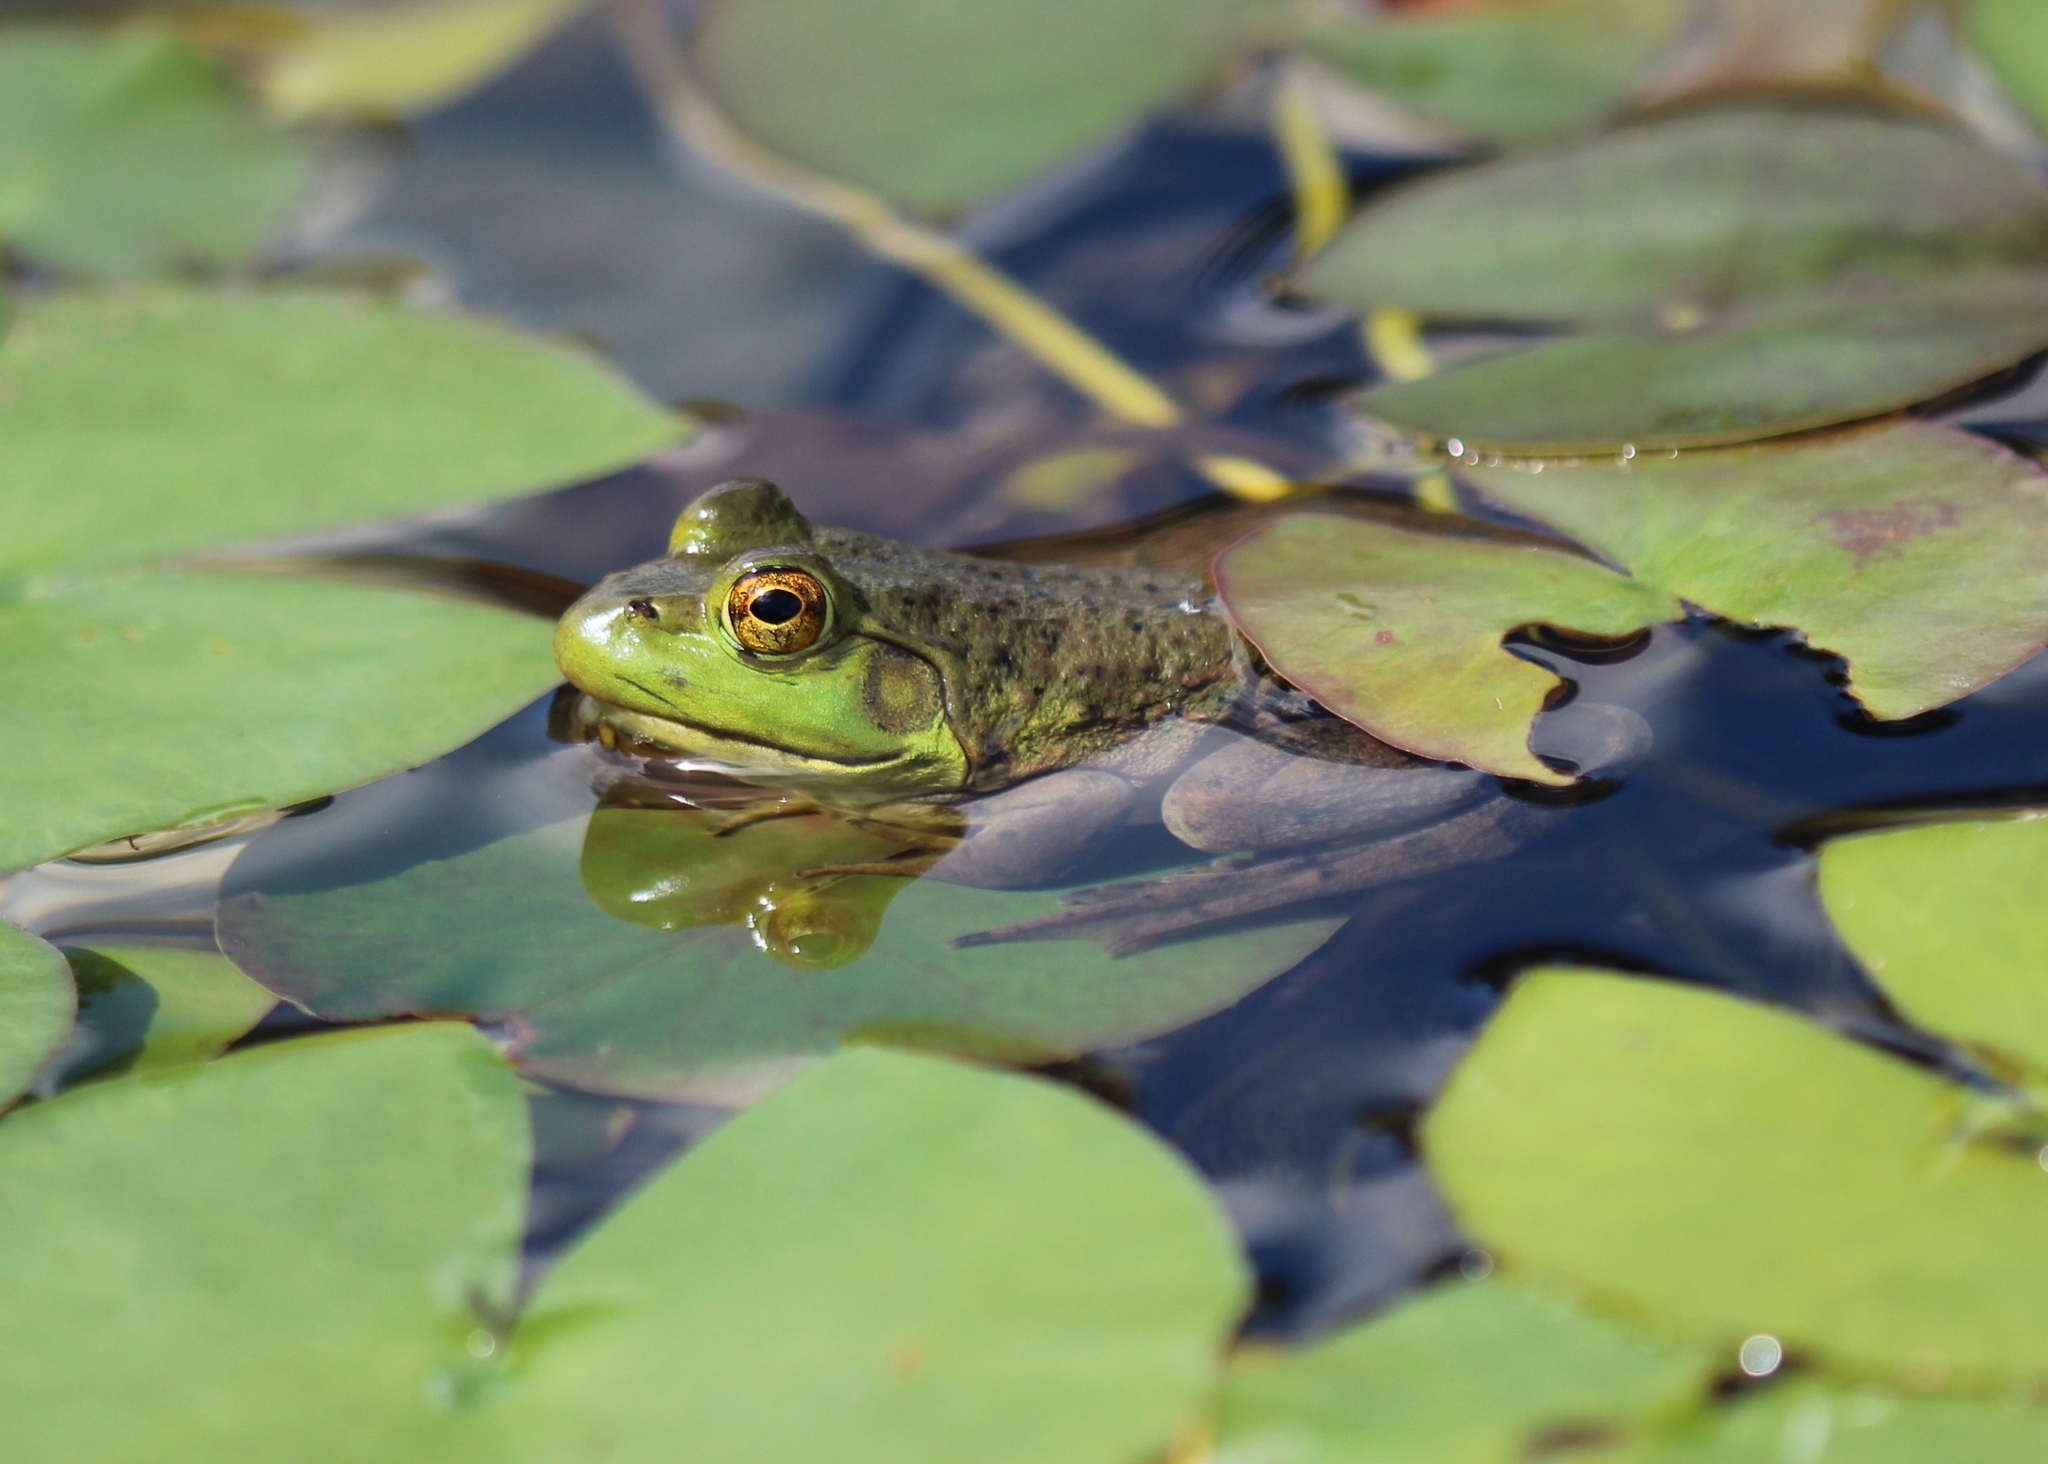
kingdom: Animalia
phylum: Chordata
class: Amphibia
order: Anura
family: Ranidae
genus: Lithobates
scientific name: Lithobates catesbeianus
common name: American bullfrog
